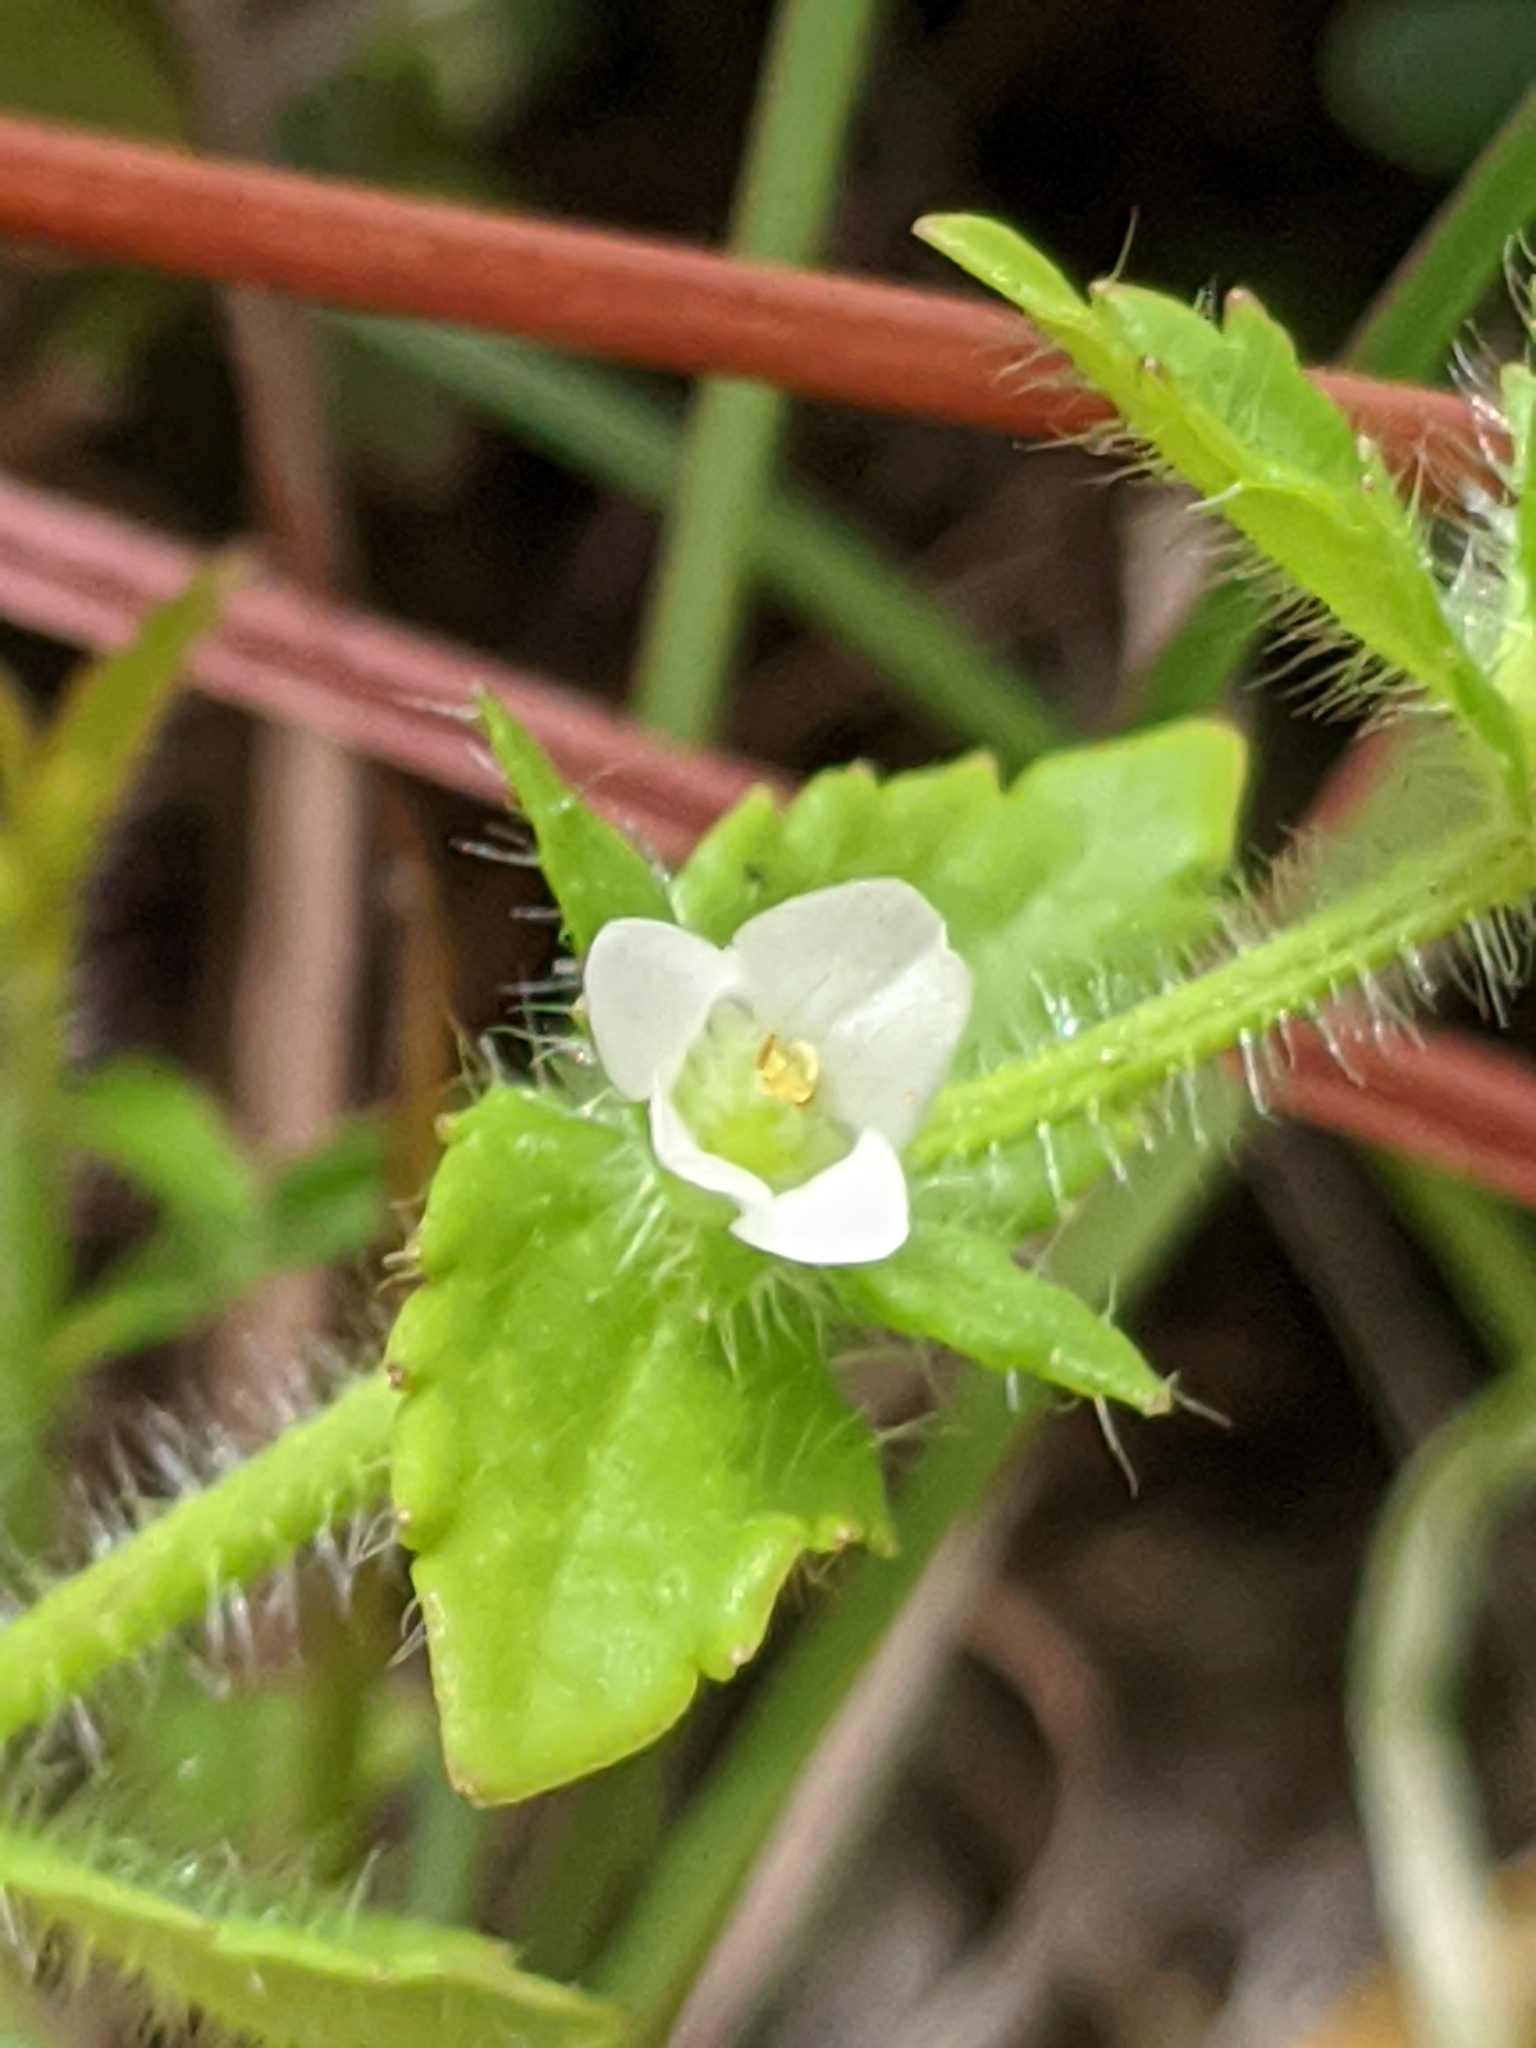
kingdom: Plantae
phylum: Tracheophyta
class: Magnoliopsida
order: Lamiales
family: Plantaginaceae
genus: Gratiola
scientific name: Gratiola pilosa
